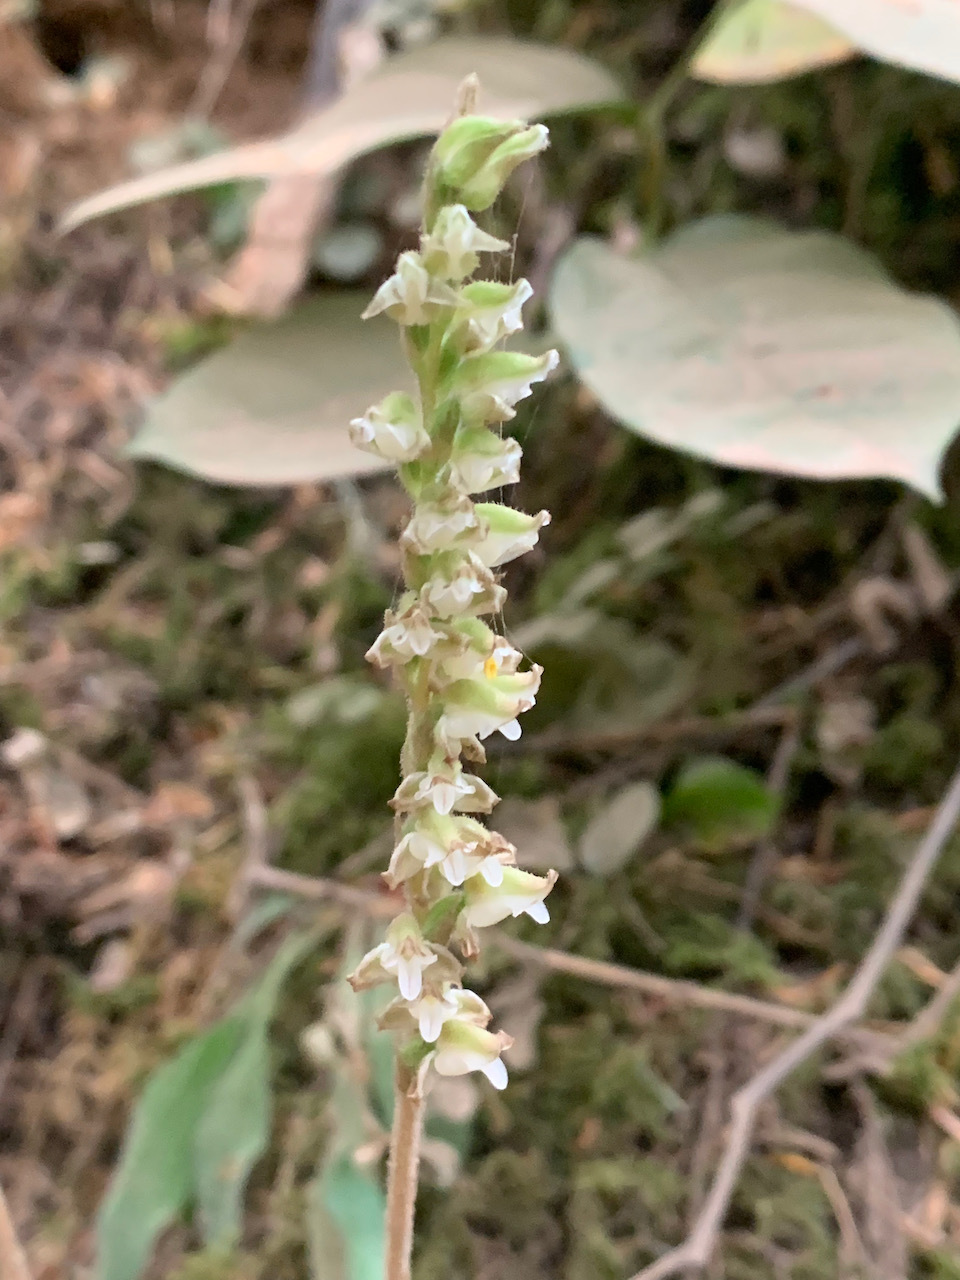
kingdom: Plantae
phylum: Tracheophyta
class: Liliopsida
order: Asparagales
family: Orchidaceae
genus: Goodyera
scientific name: Goodyera oblongifolia
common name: Giant rattlesnake-plantain
